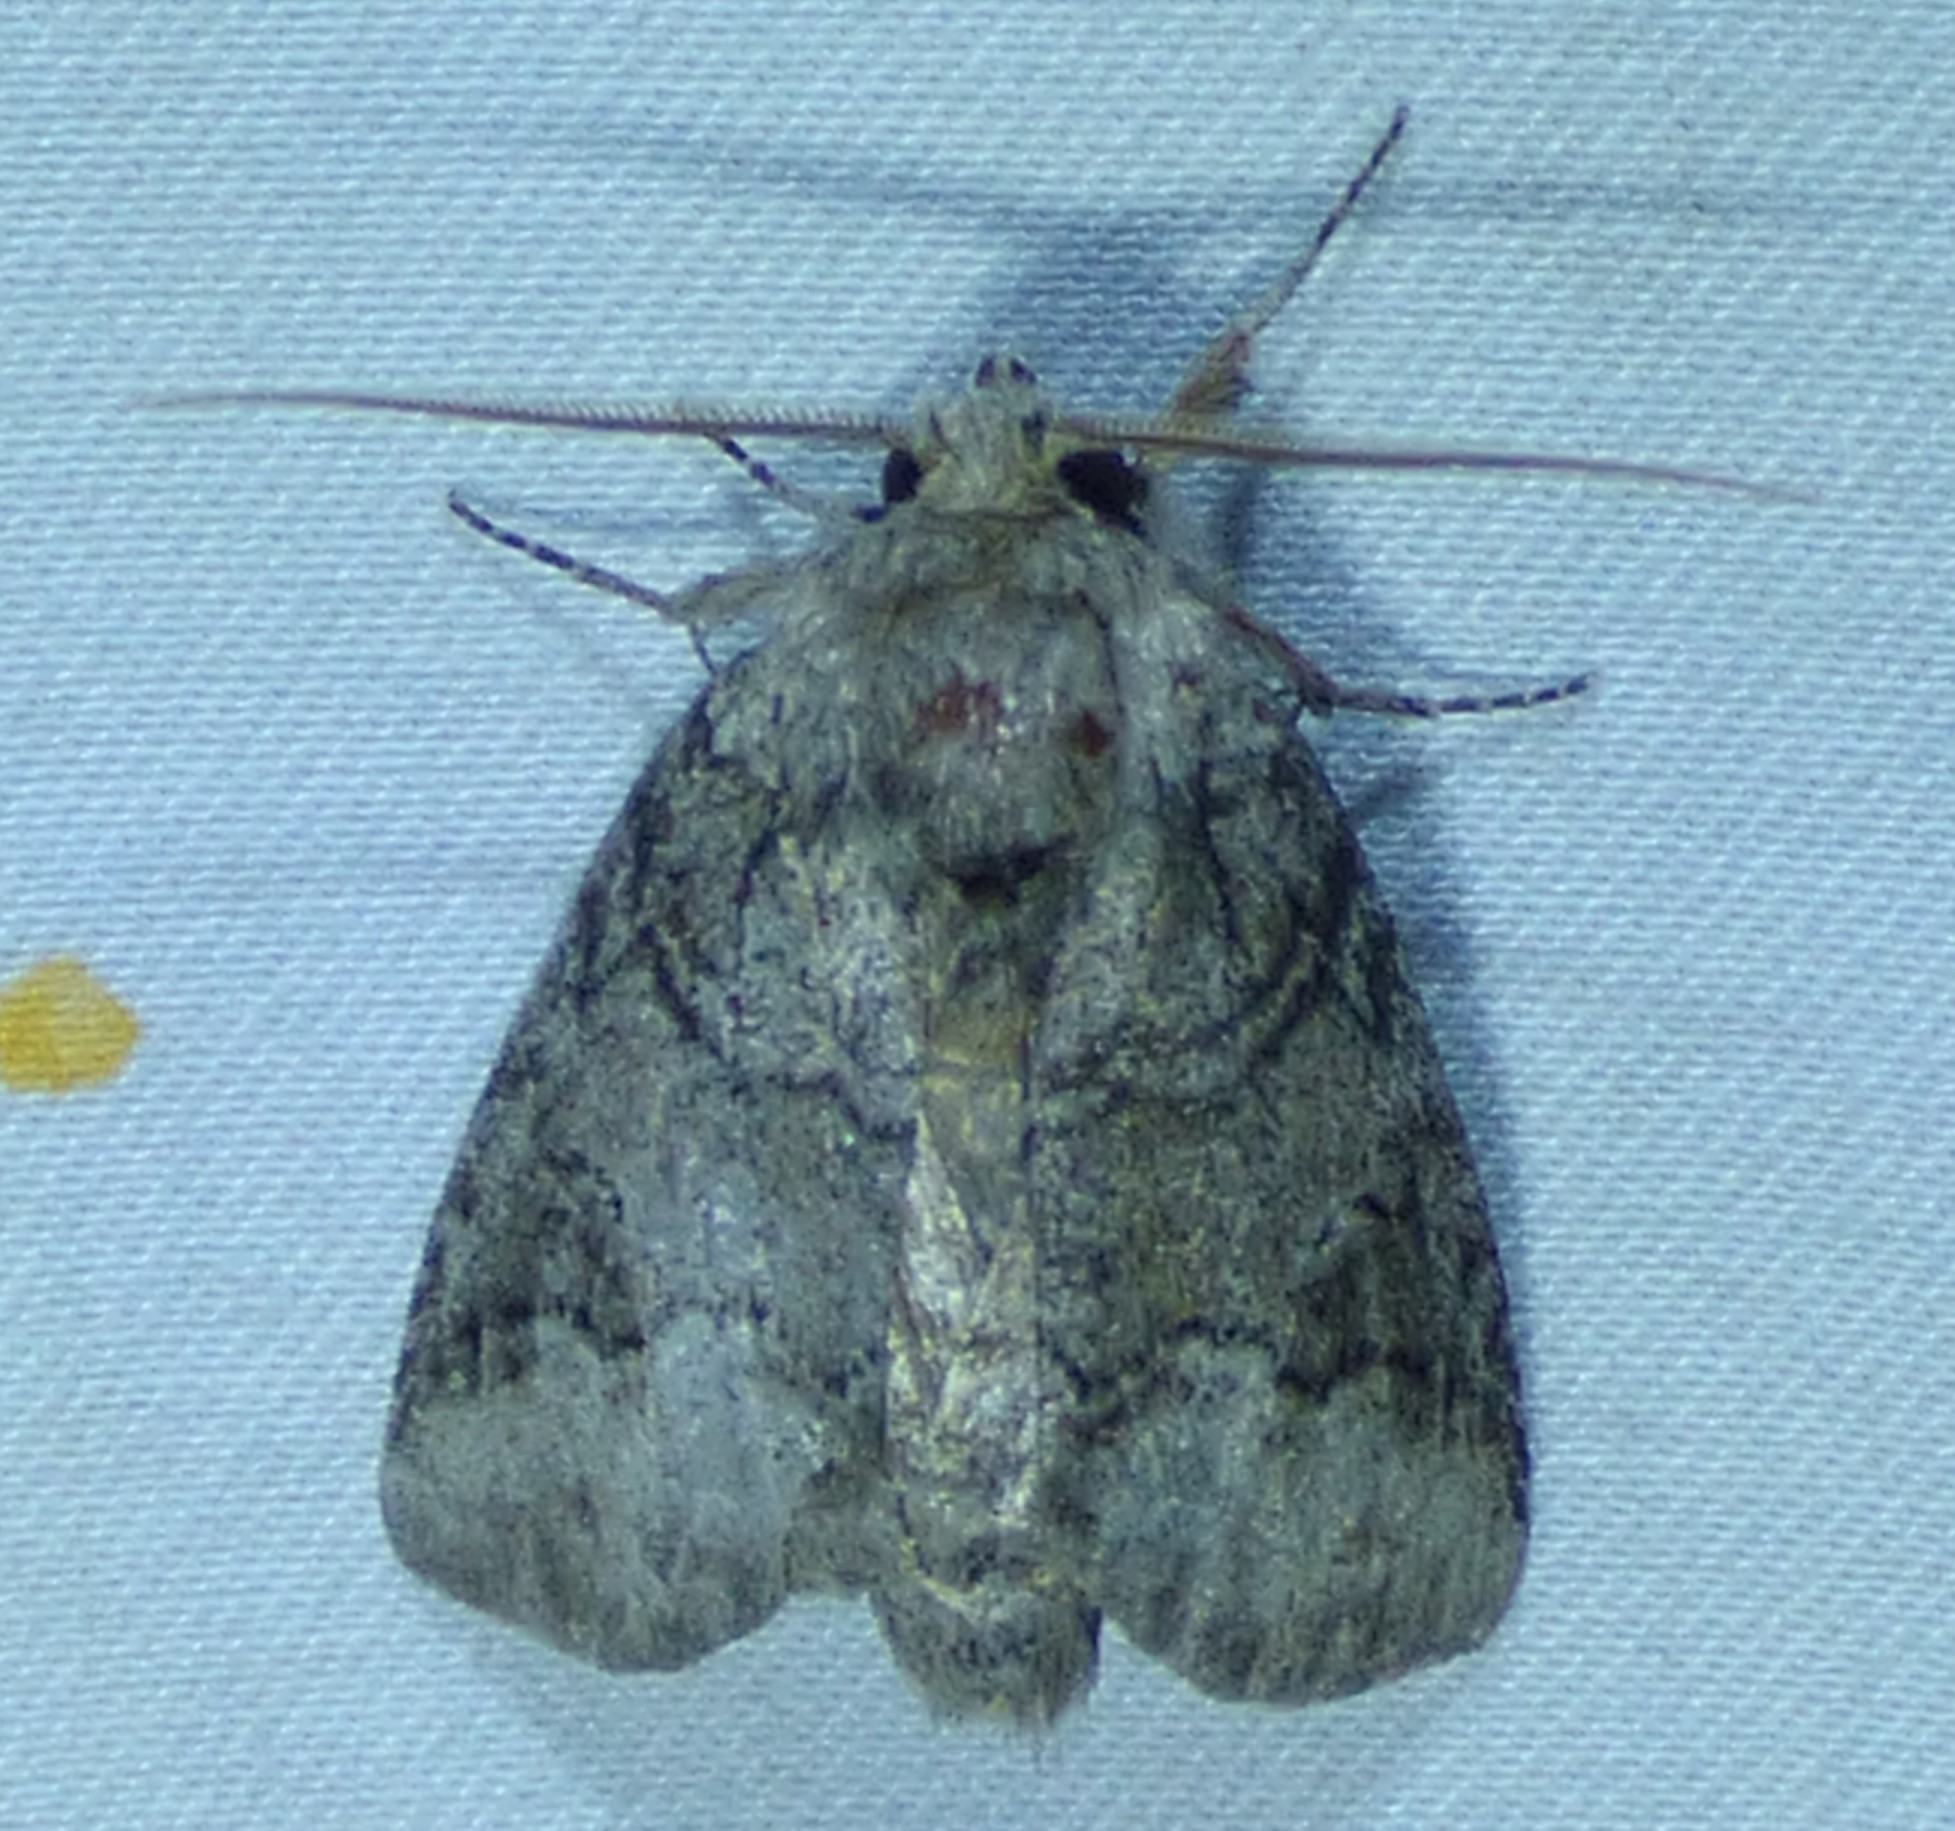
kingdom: Animalia
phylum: Arthropoda
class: Insecta
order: Lepidoptera
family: Notodontidae
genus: Lochmaeus
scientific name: Lochmaeus bilineata
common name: Double-lined prominent
